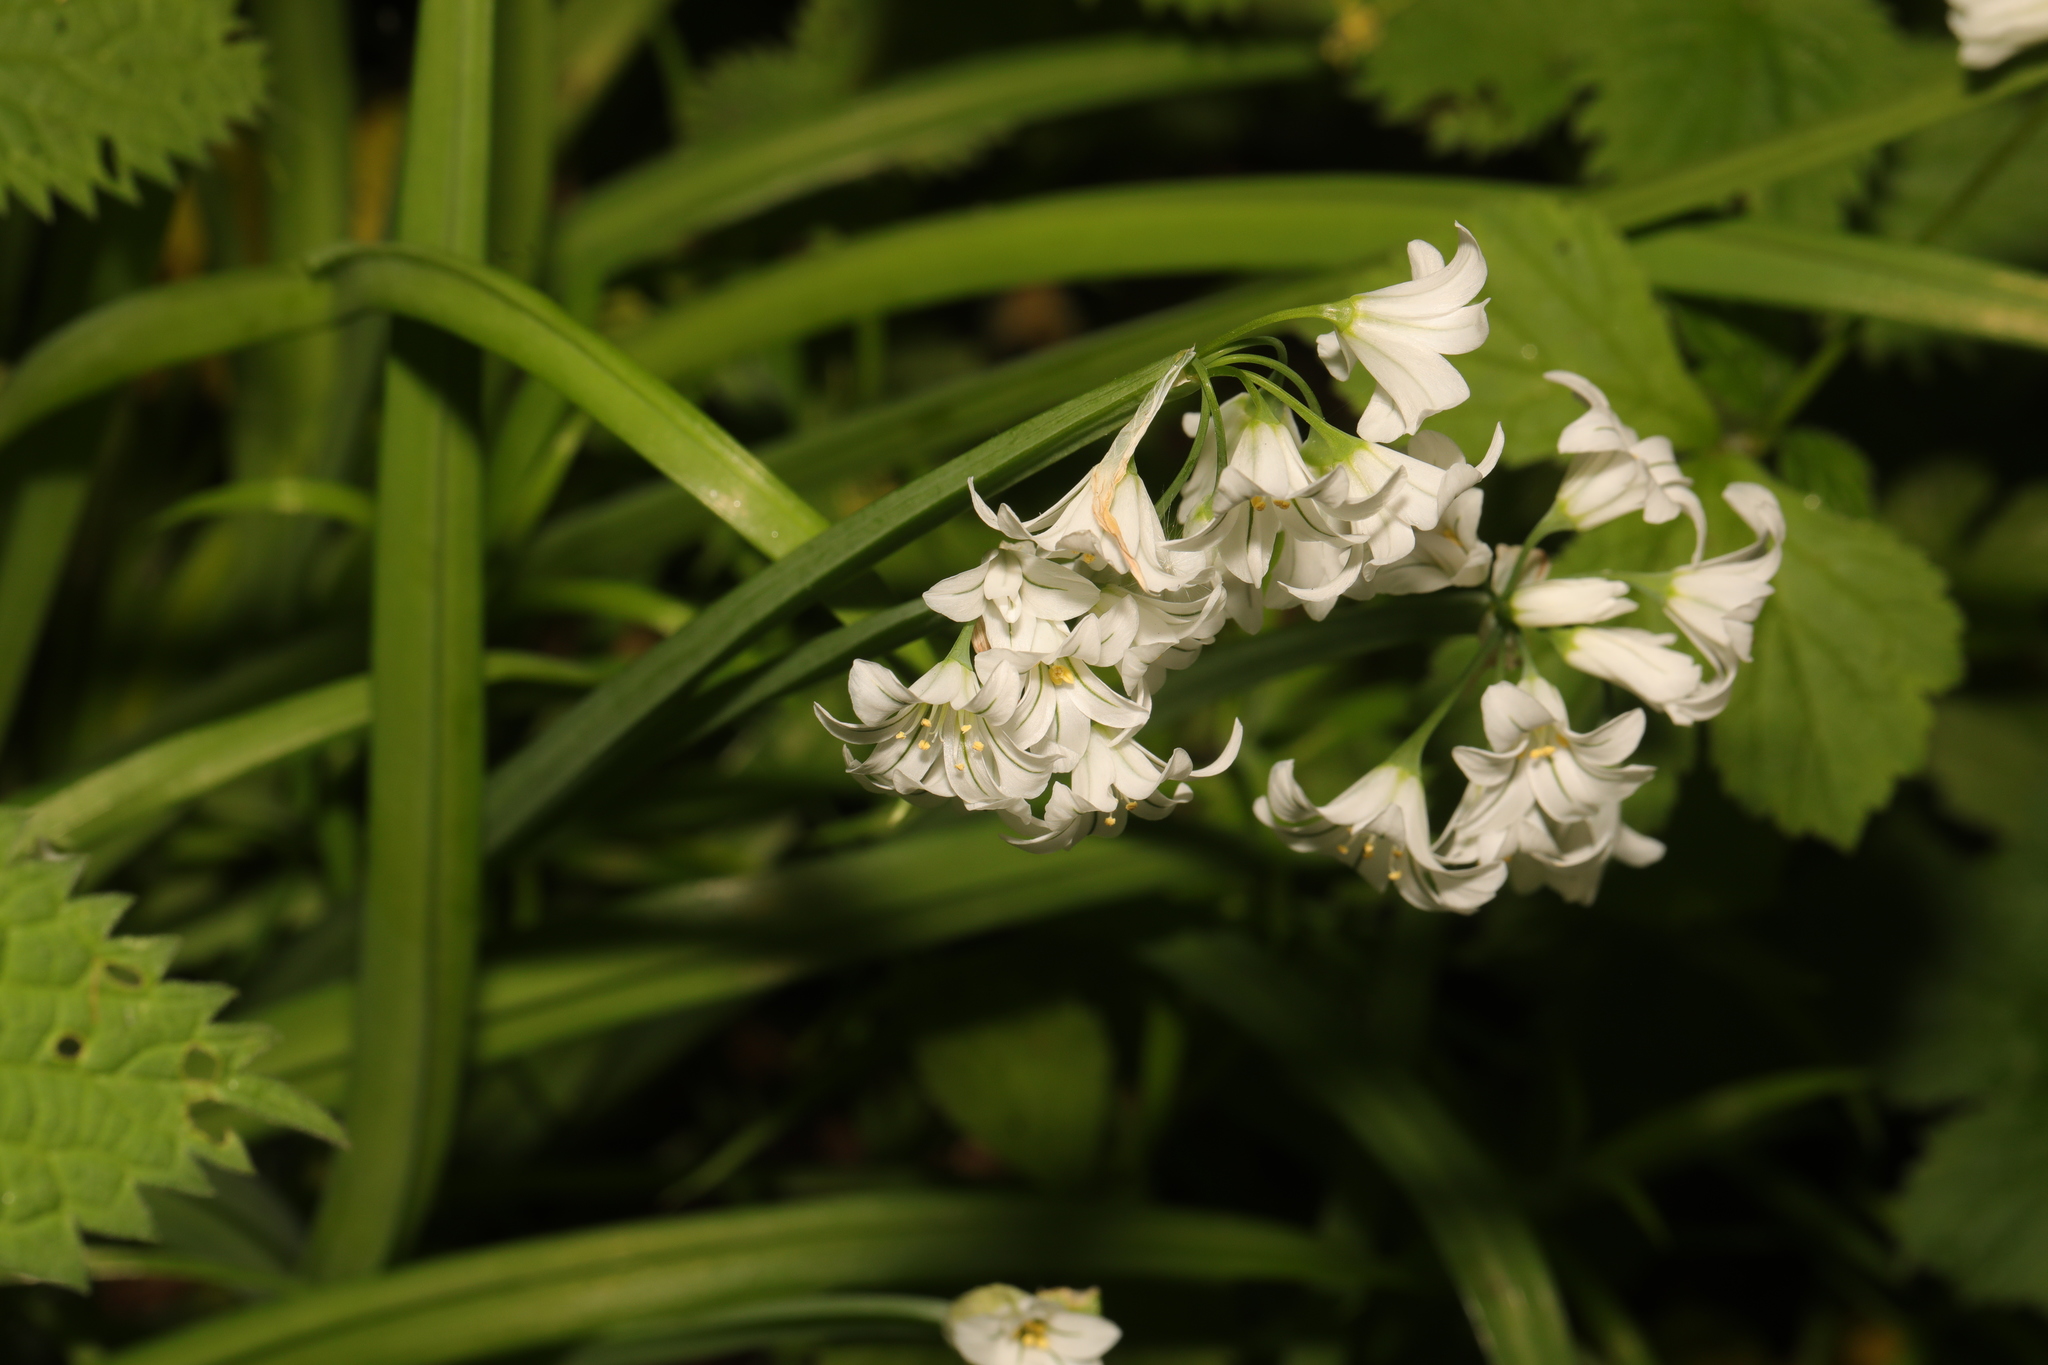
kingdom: Plantae
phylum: Tracheophyta
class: Liliopsida
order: Asparagales
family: Amaryllidaceae
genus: Allium
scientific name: Allium triquetrum
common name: Three-cornered garlic
